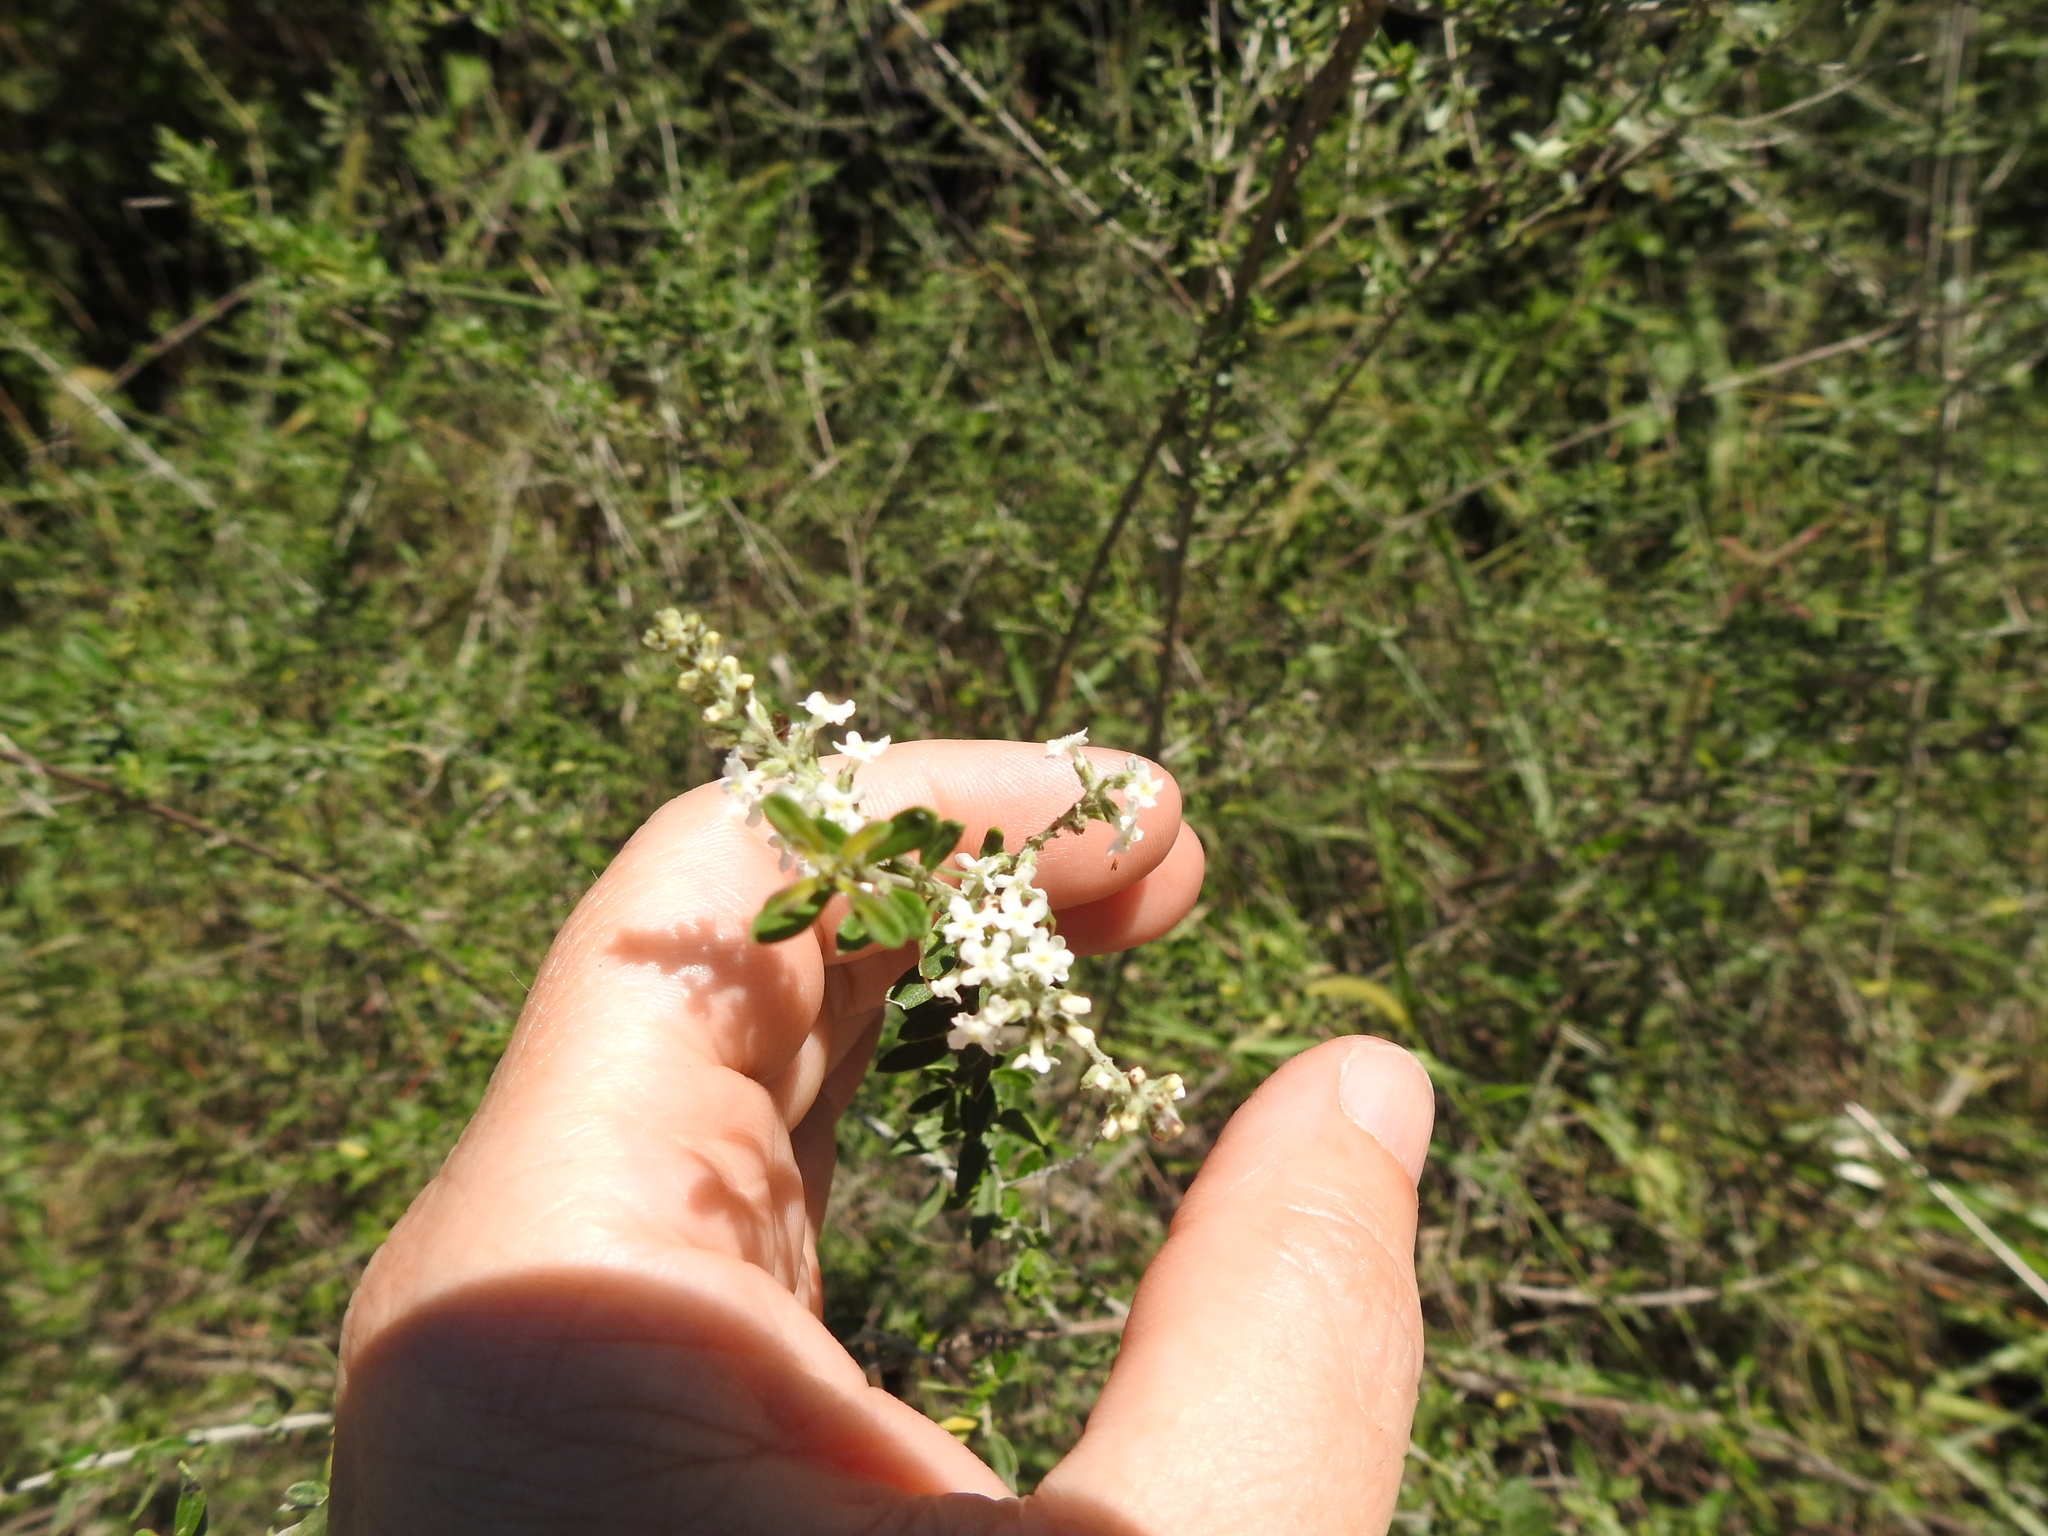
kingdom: Plantae
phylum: Tracheophyta
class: Magnoliopsida
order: Lamiales
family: Verbenaceae
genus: Aloysia
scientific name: Aloysia decipiens
